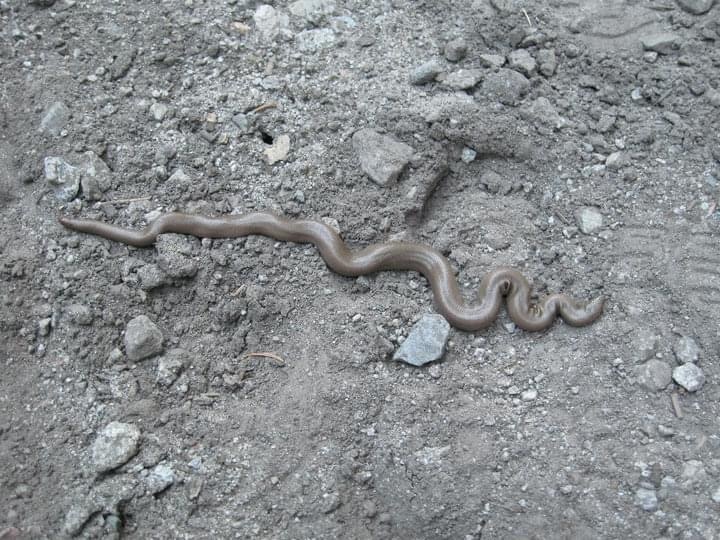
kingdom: Animalia
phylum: Chordata
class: Squamata
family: Boidae
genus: Charina
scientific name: Charina bottae
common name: Northern rubber boa
